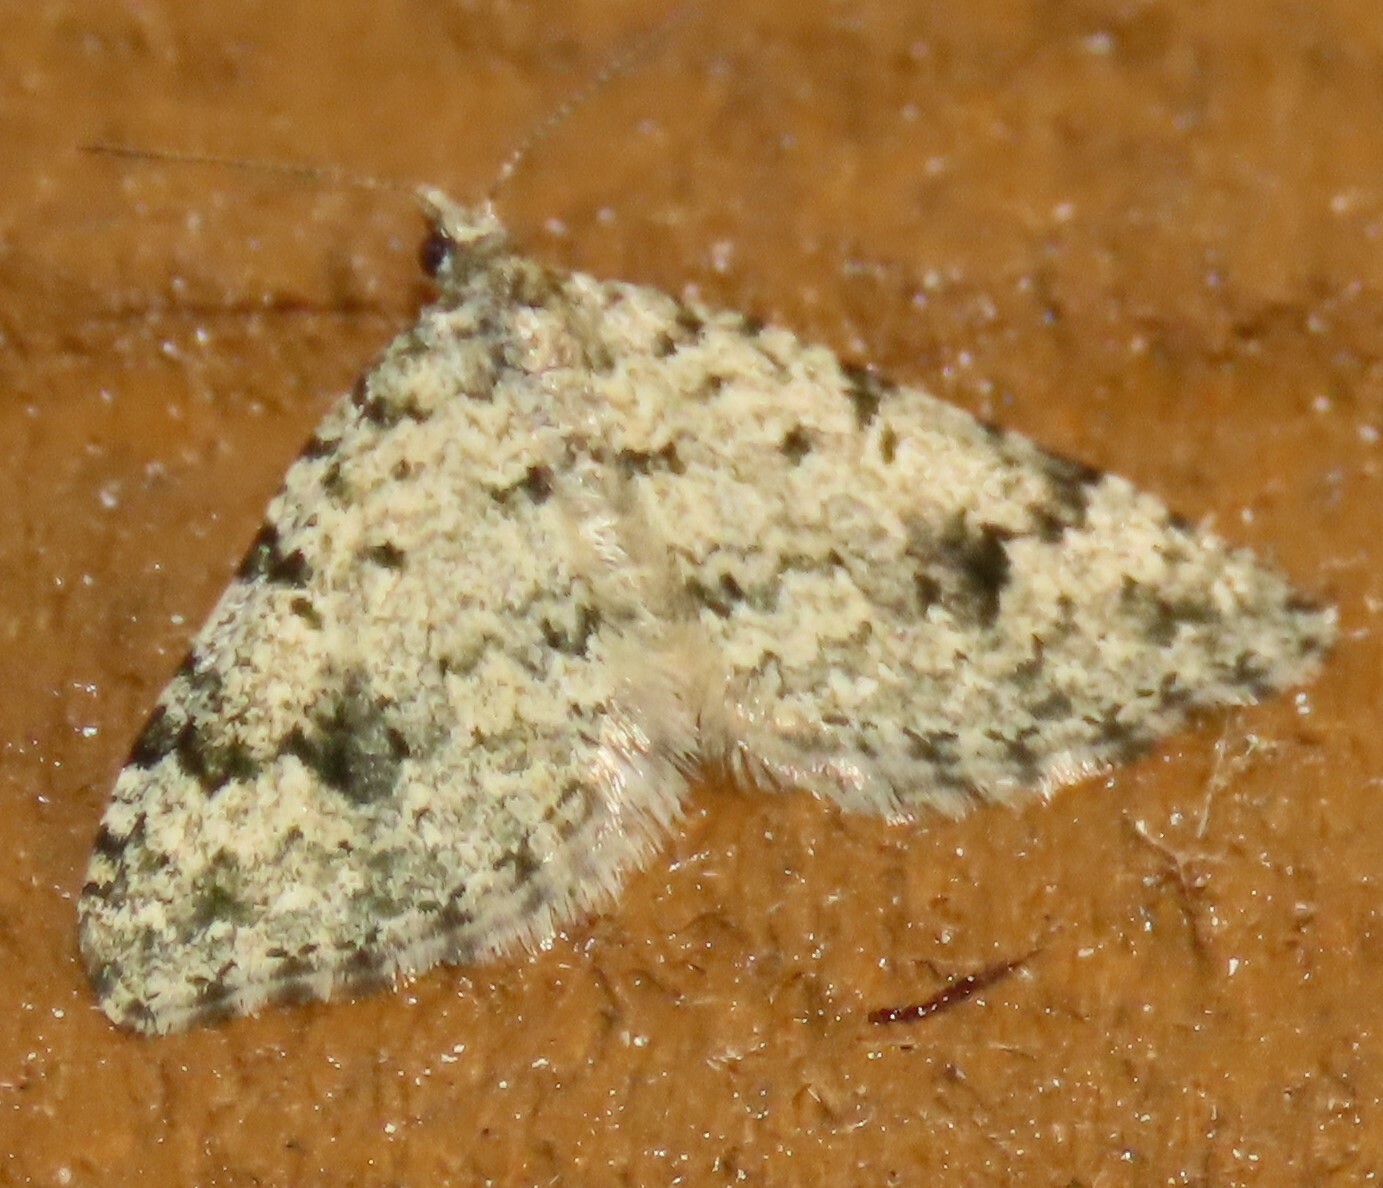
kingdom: Animalia
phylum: Arthropoda
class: Insecta
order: Lepidoptera
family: Geometridae
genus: Helastia
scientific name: Helastia cinerearia
